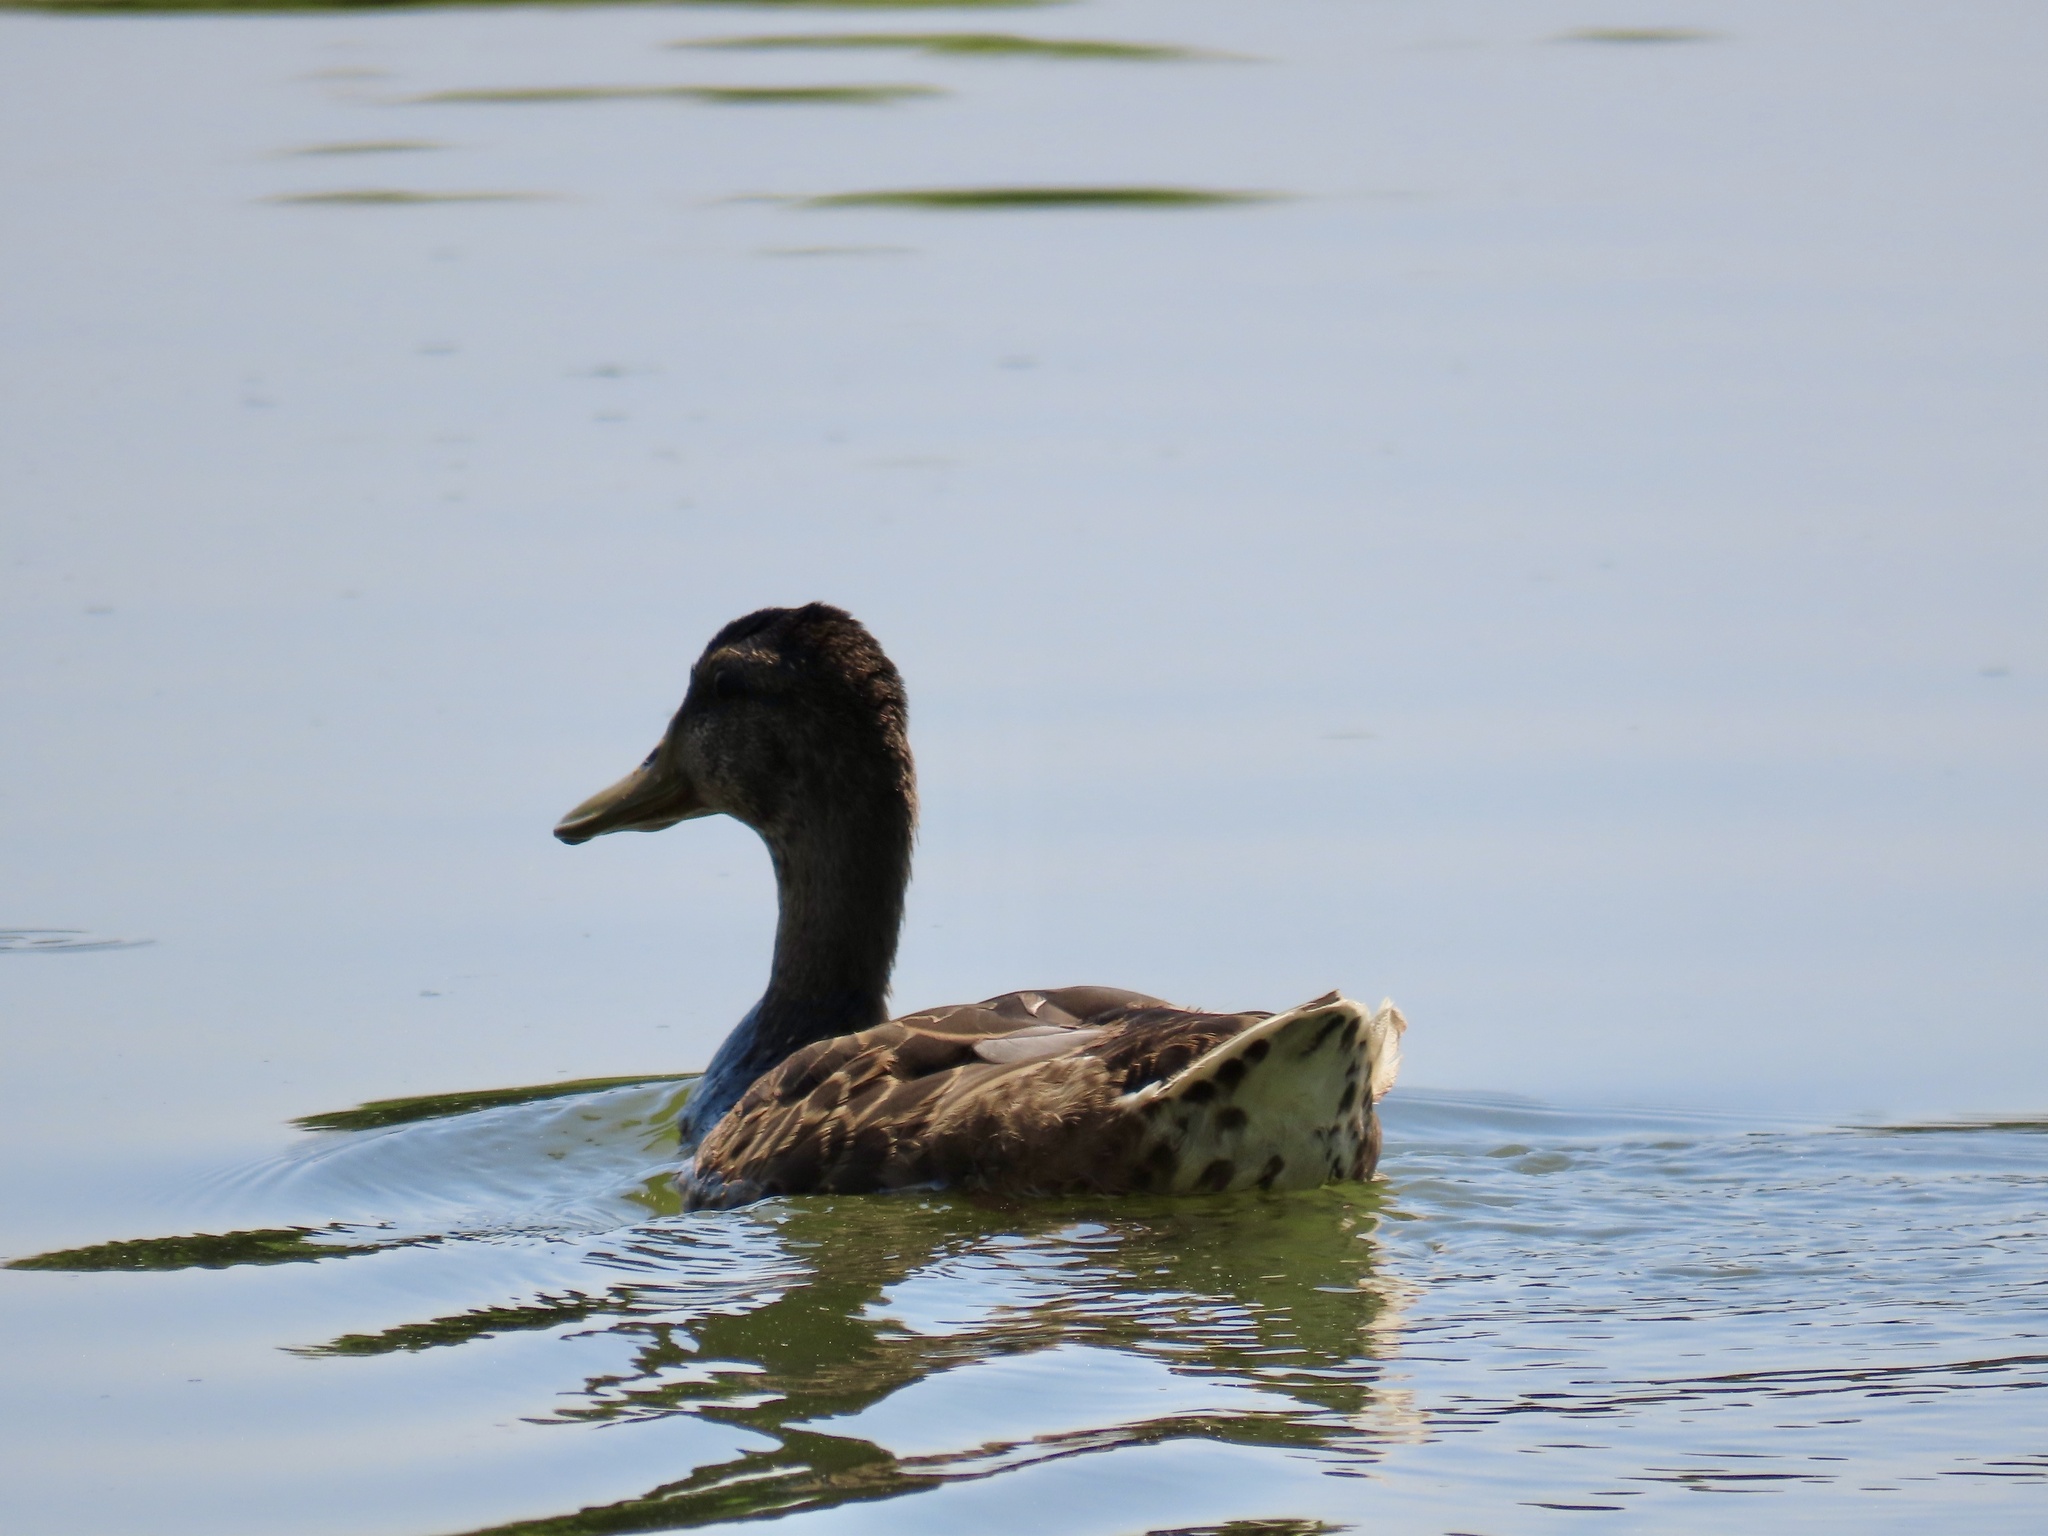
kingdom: Animalia
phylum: Chordata
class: Aves
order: Anseriformes
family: Anatidae
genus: Anas
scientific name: Anas platyrhynchos
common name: Mallard
